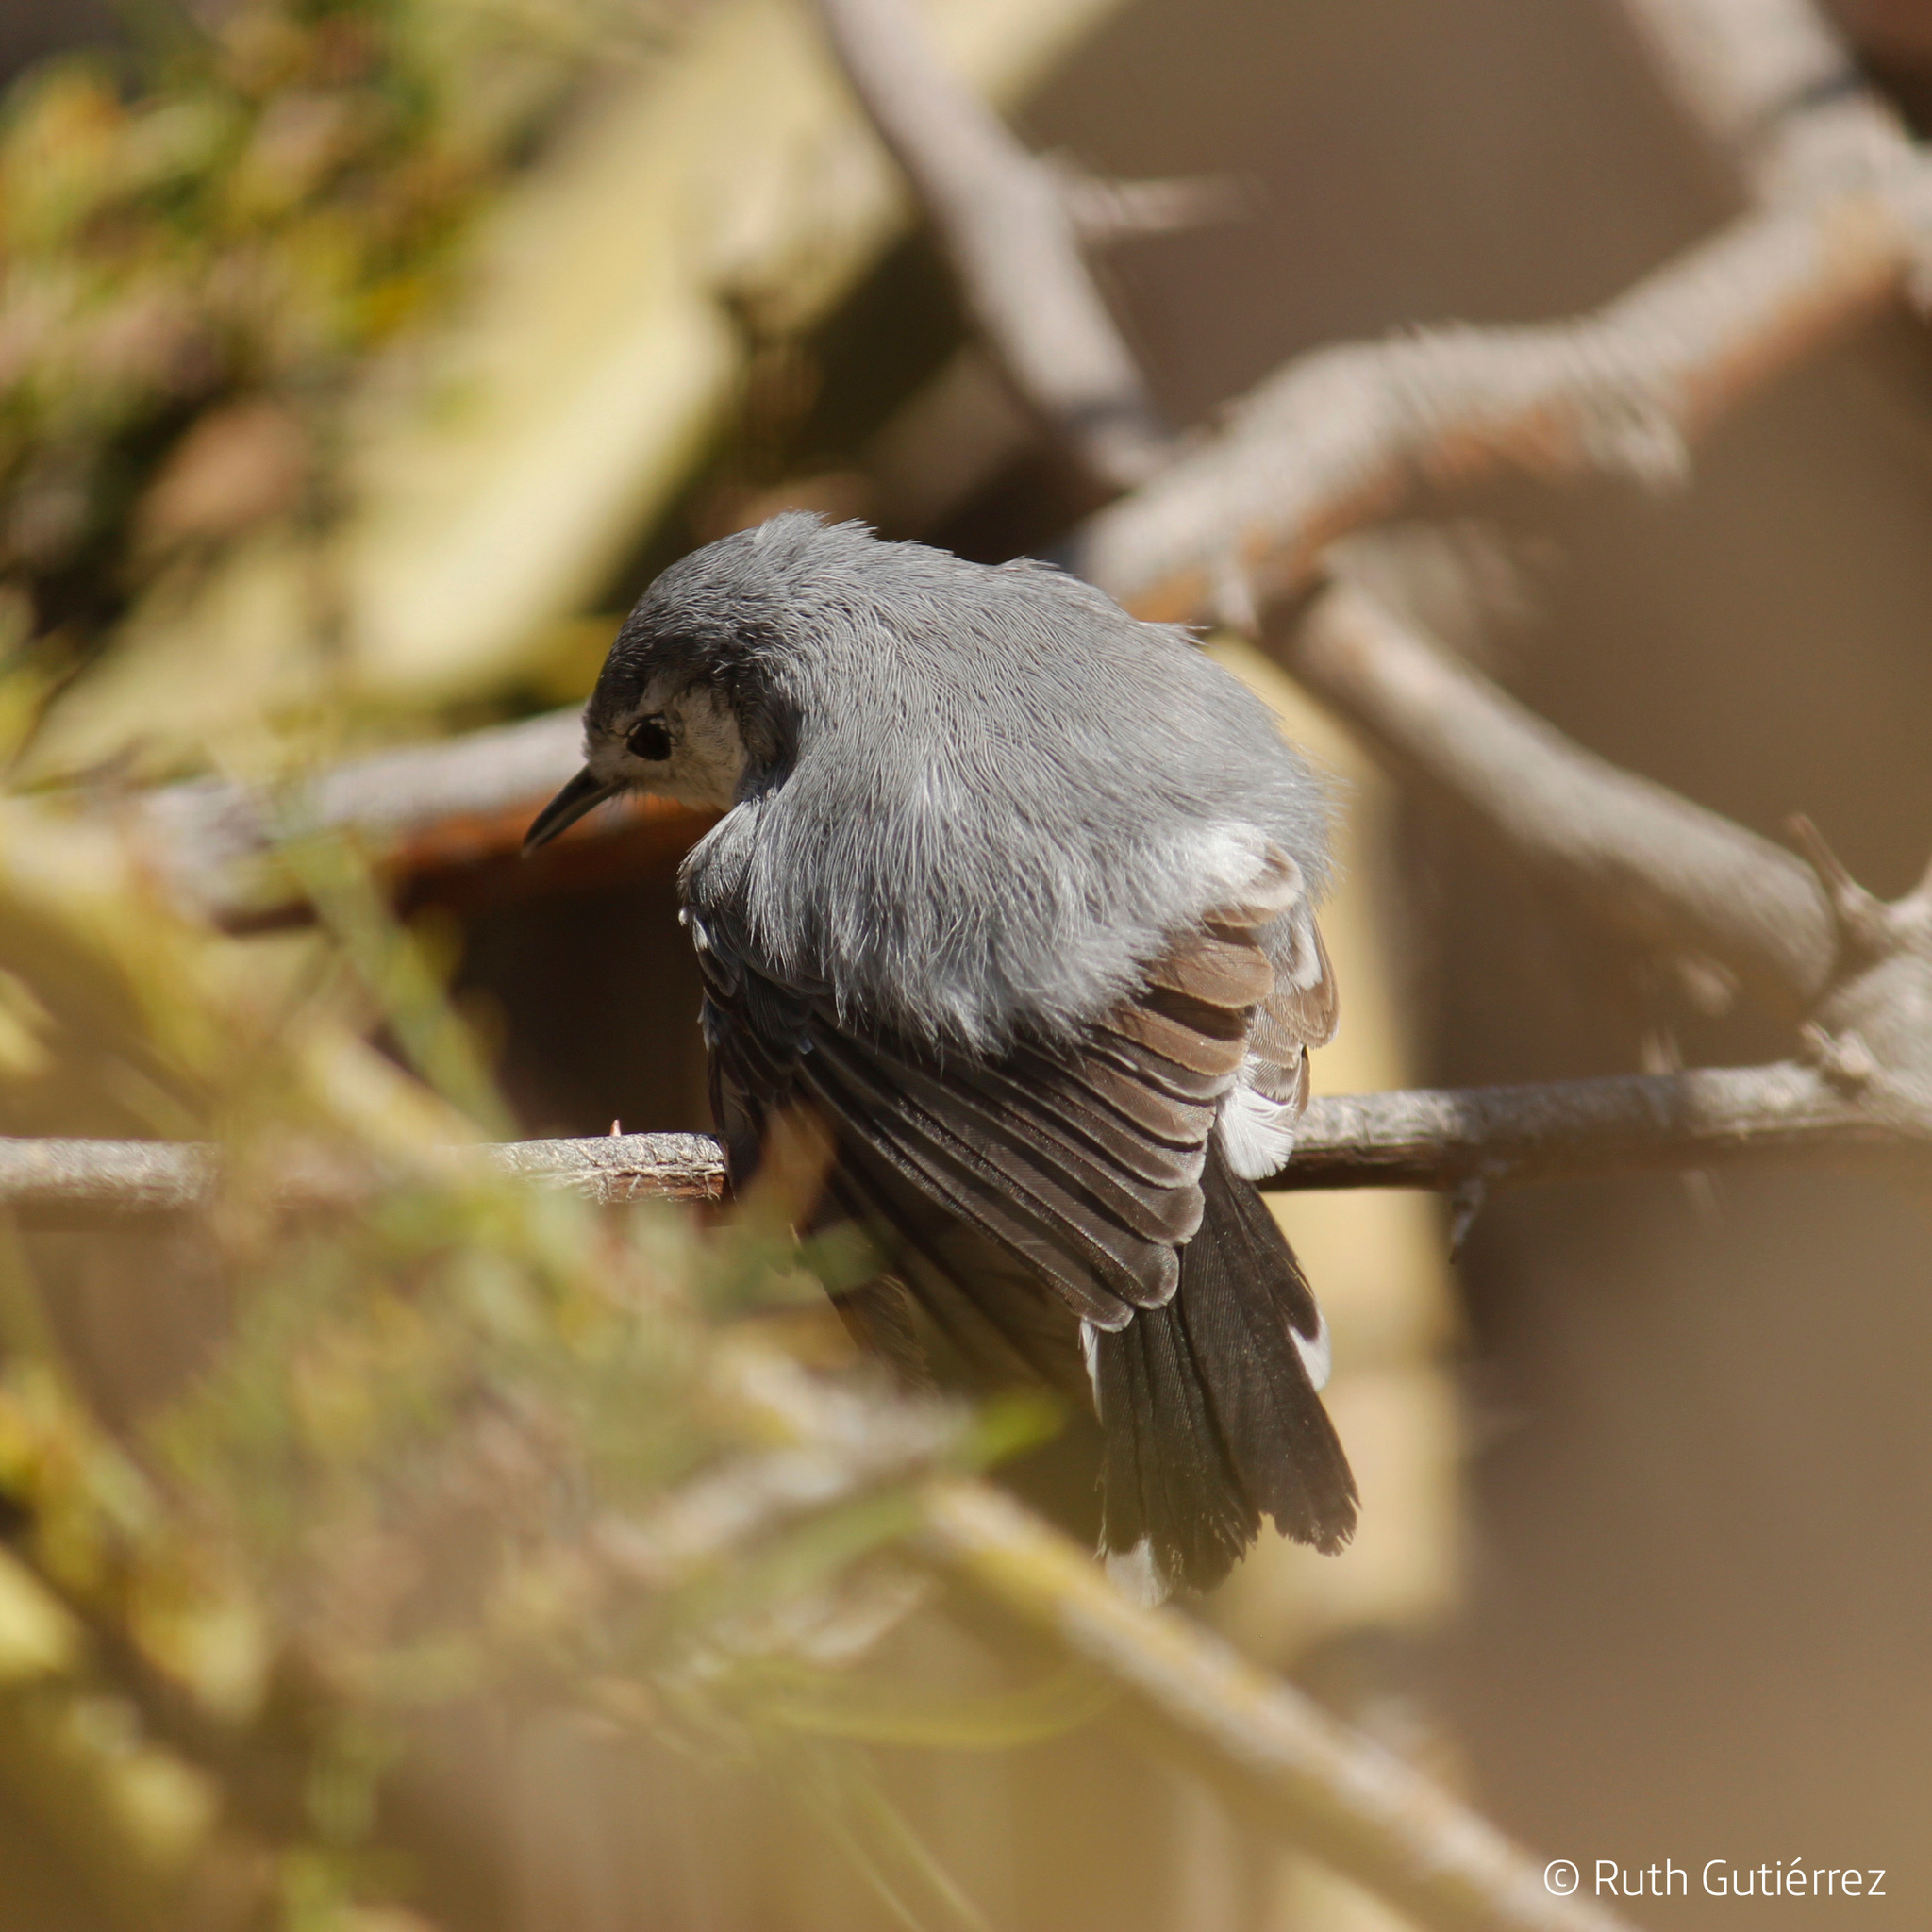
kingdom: Animalia
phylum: Chordata
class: Aves
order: Passeriformes
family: Polioptilidae
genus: Polioptila
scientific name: Polioptila plumbea
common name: Tropical gnatcatcher
